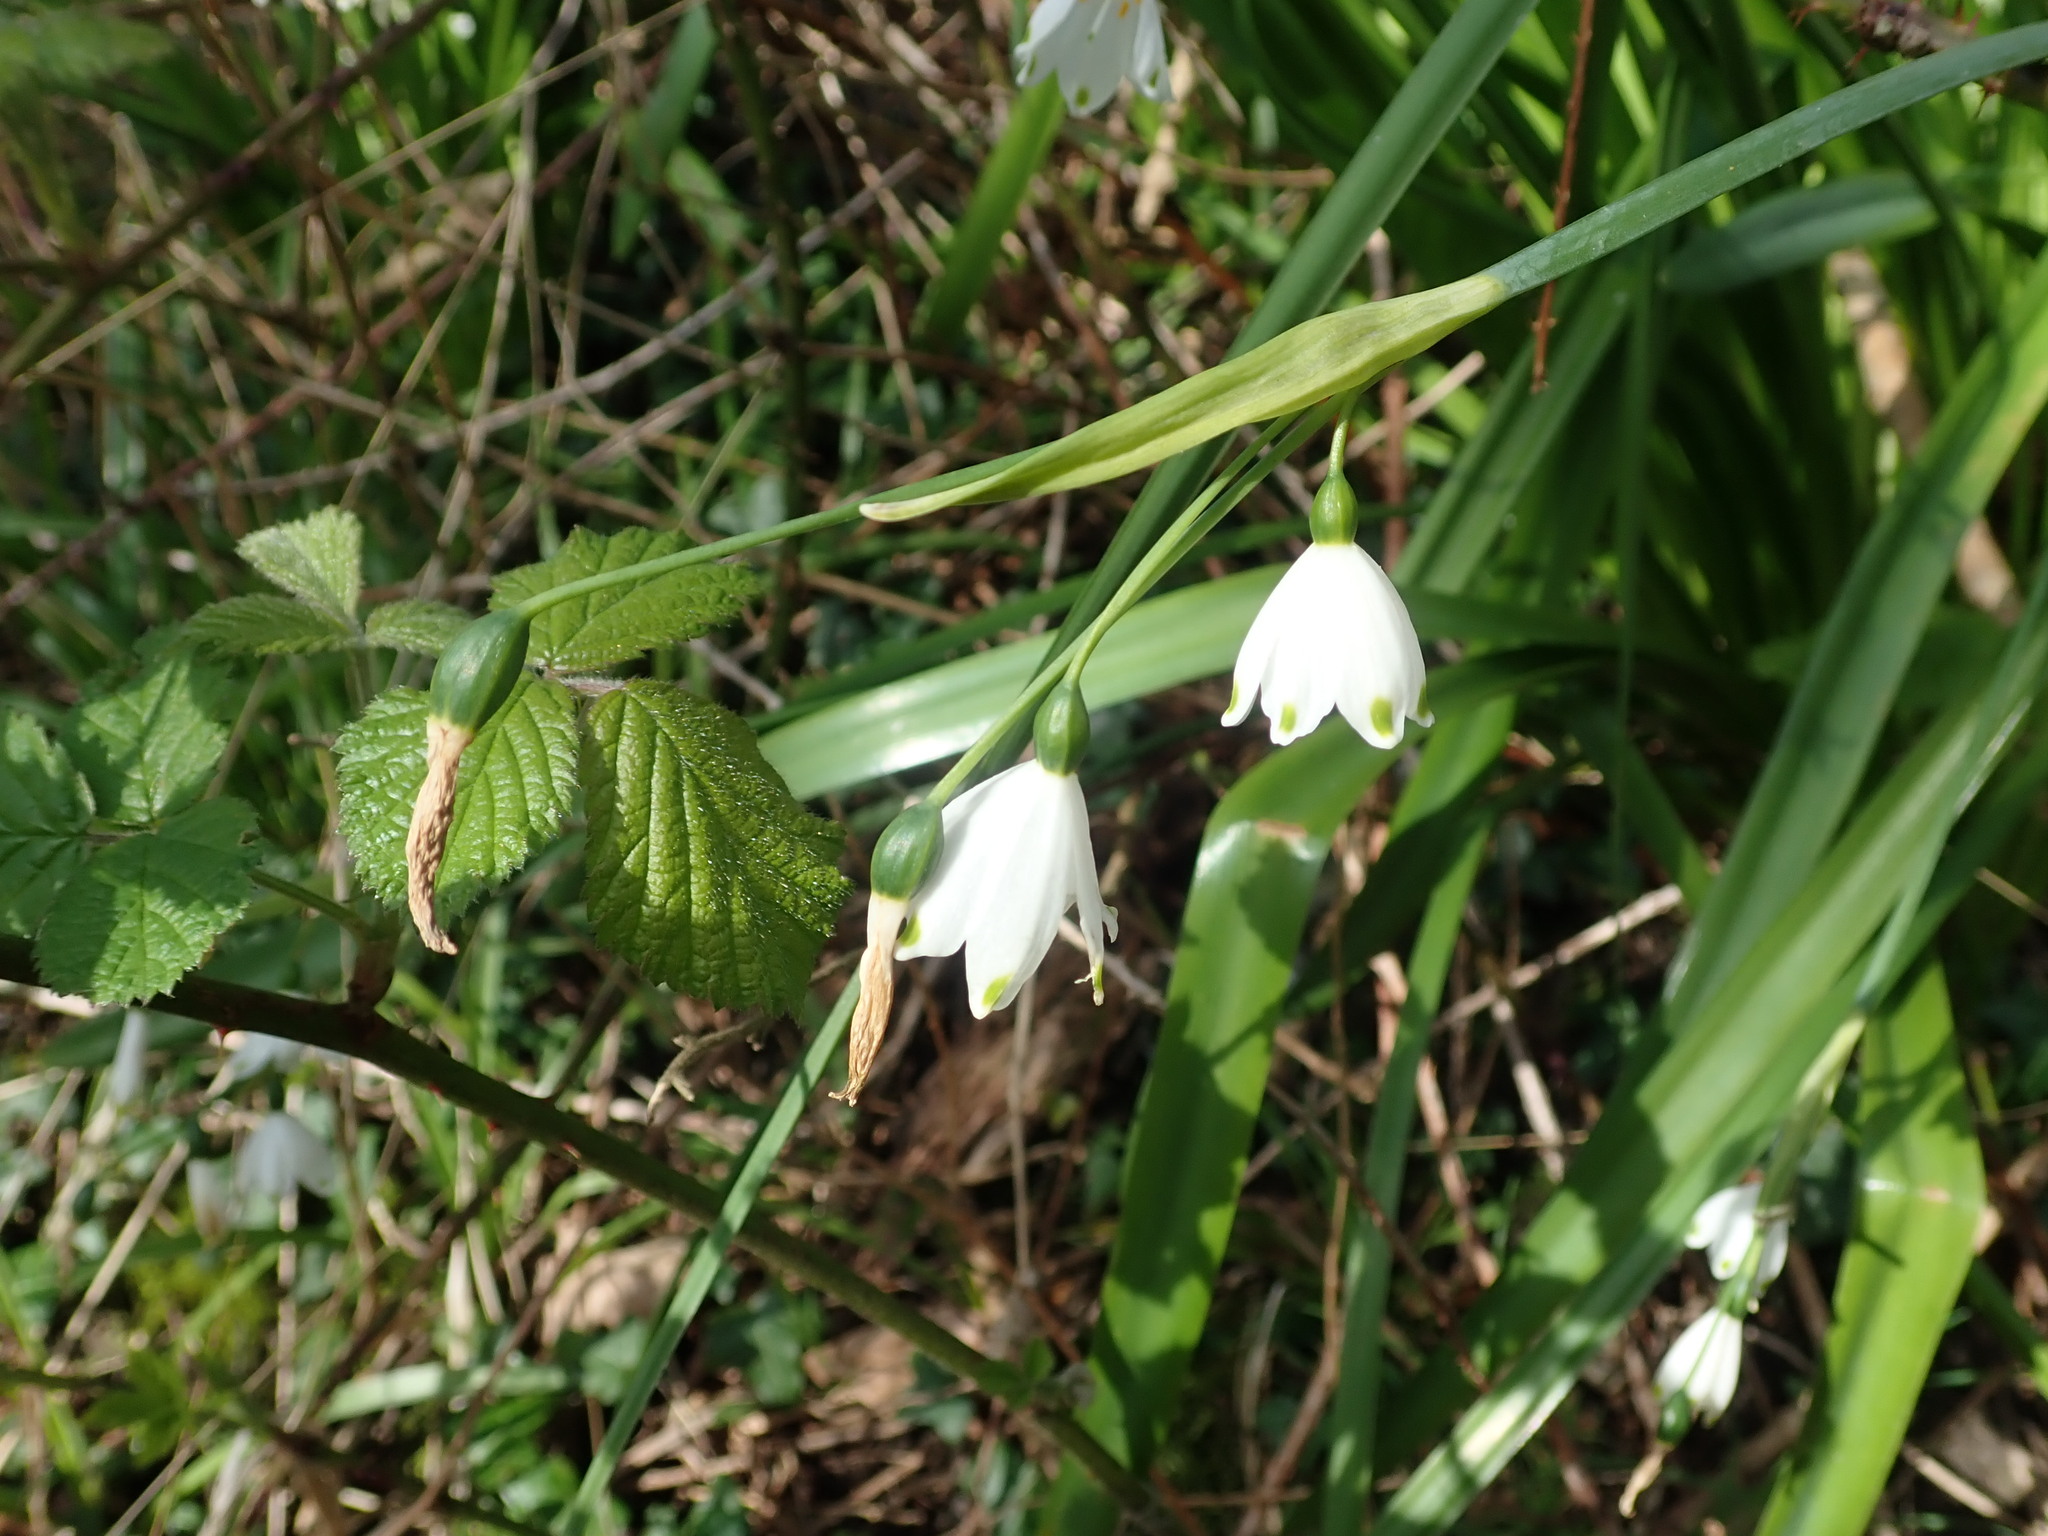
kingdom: Plantae
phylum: Tracheophyta
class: Liliopsida
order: Asparagales
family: Amaryllidaceae
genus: Leucojum
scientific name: Leucojum aestivum
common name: Summer snowflake
